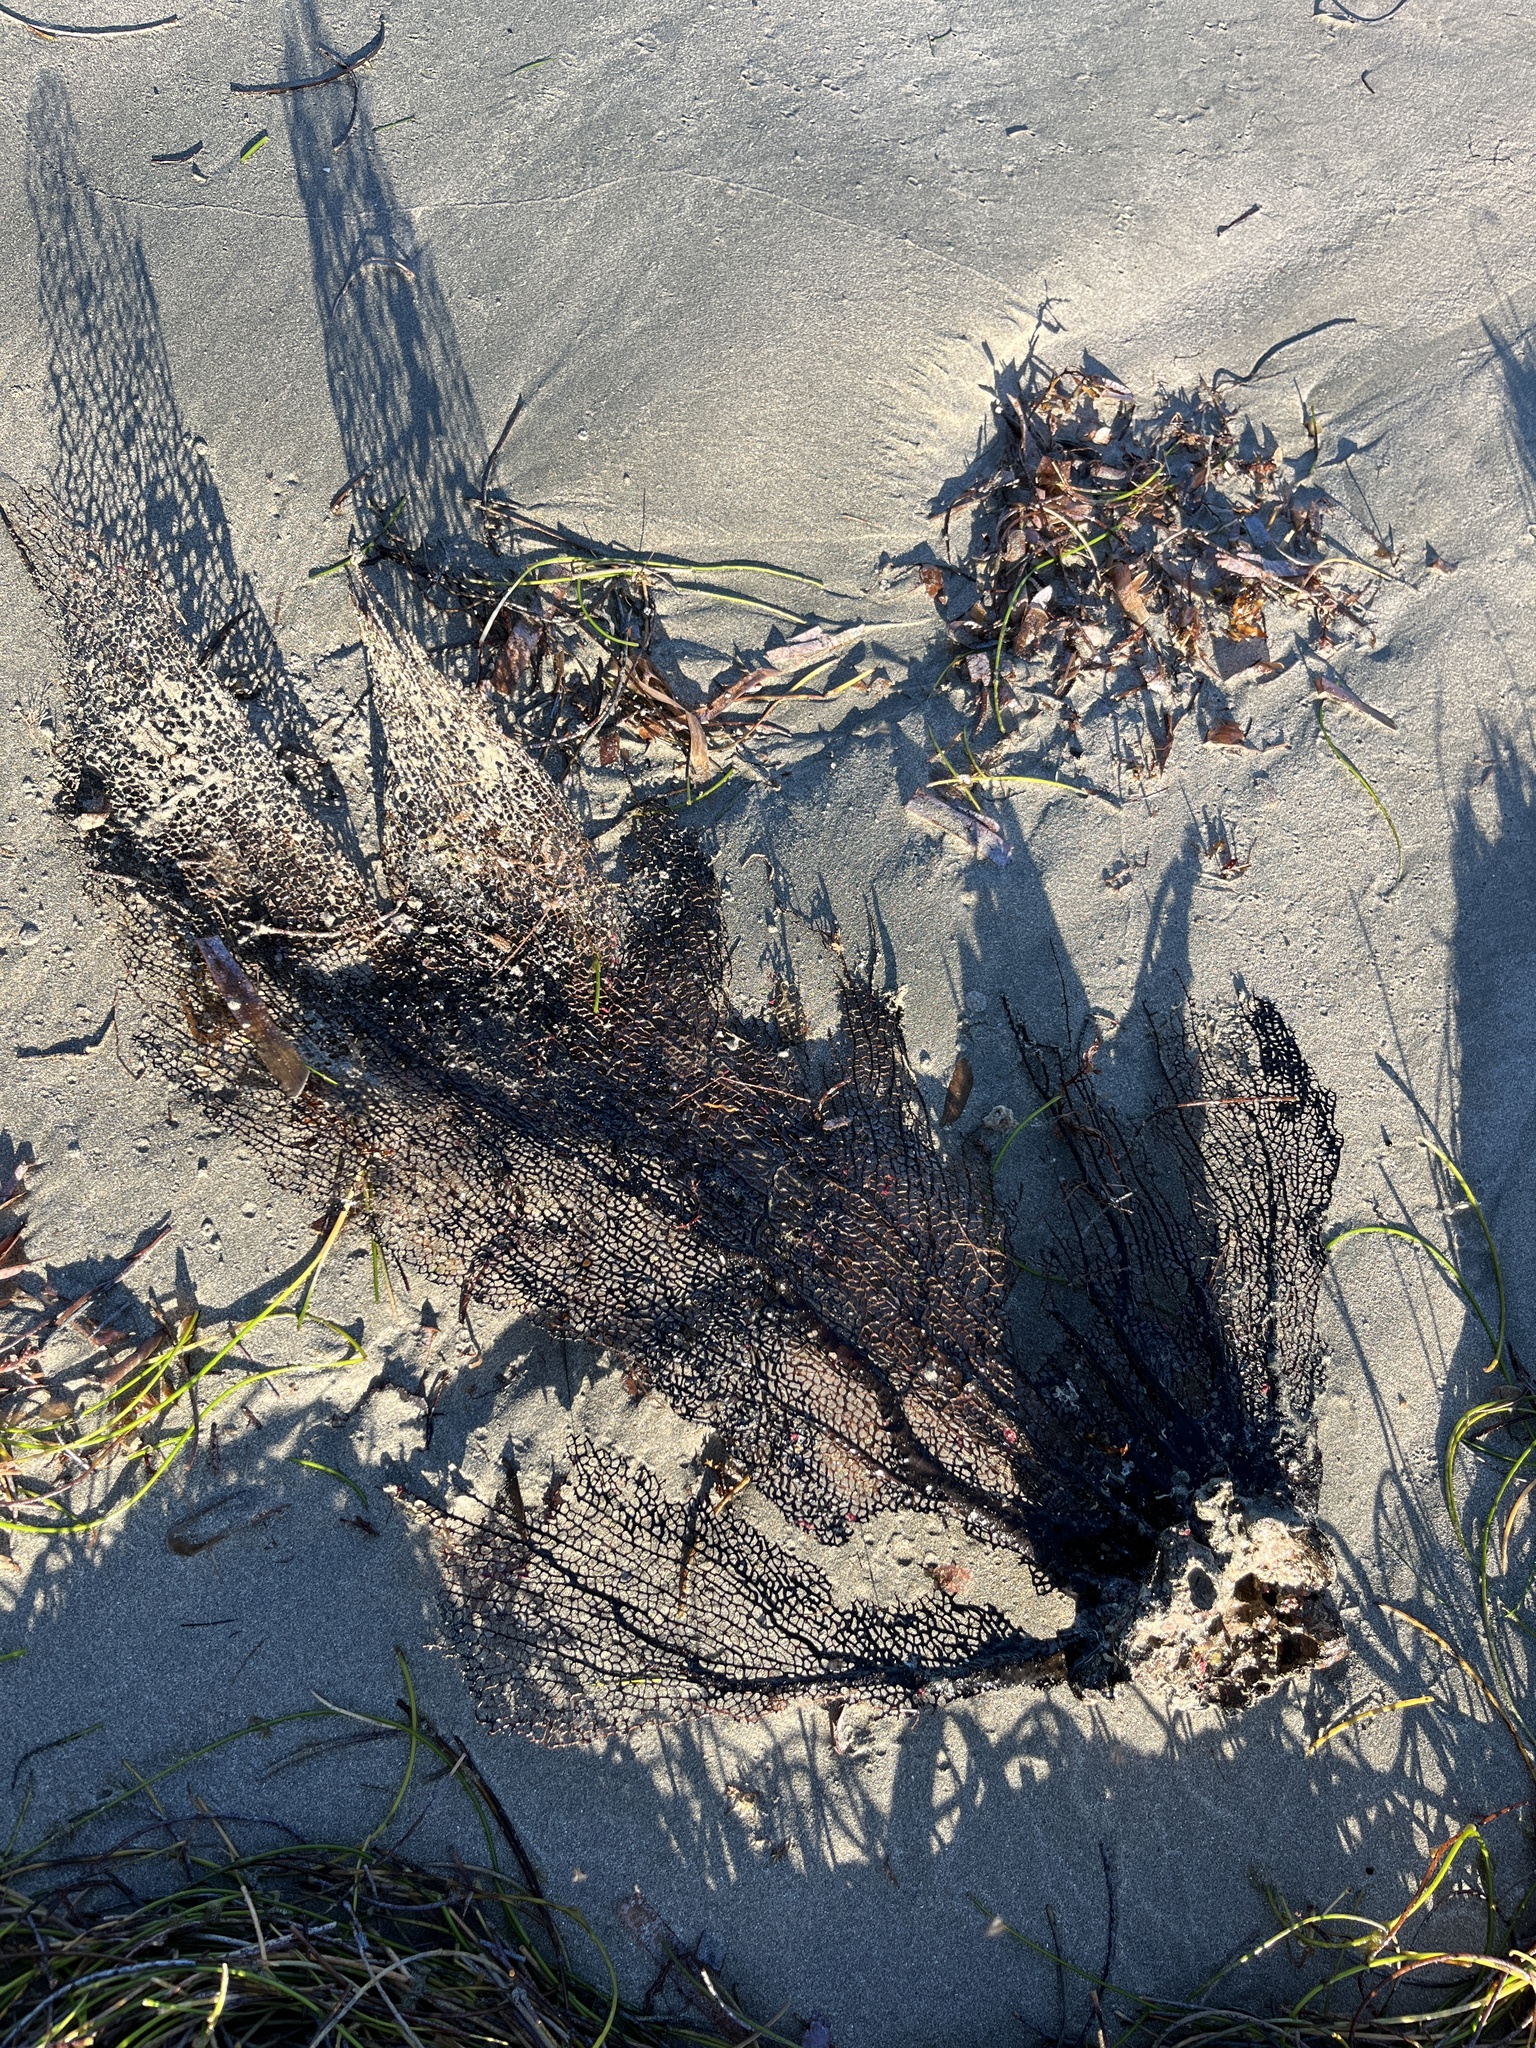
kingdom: Animalia
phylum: Cnidaria
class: Anthozoa
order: Malacalcyonacea
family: Gorgoniidae
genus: Gorgonia
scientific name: Gorgonia ventalina
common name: Common sea fan
